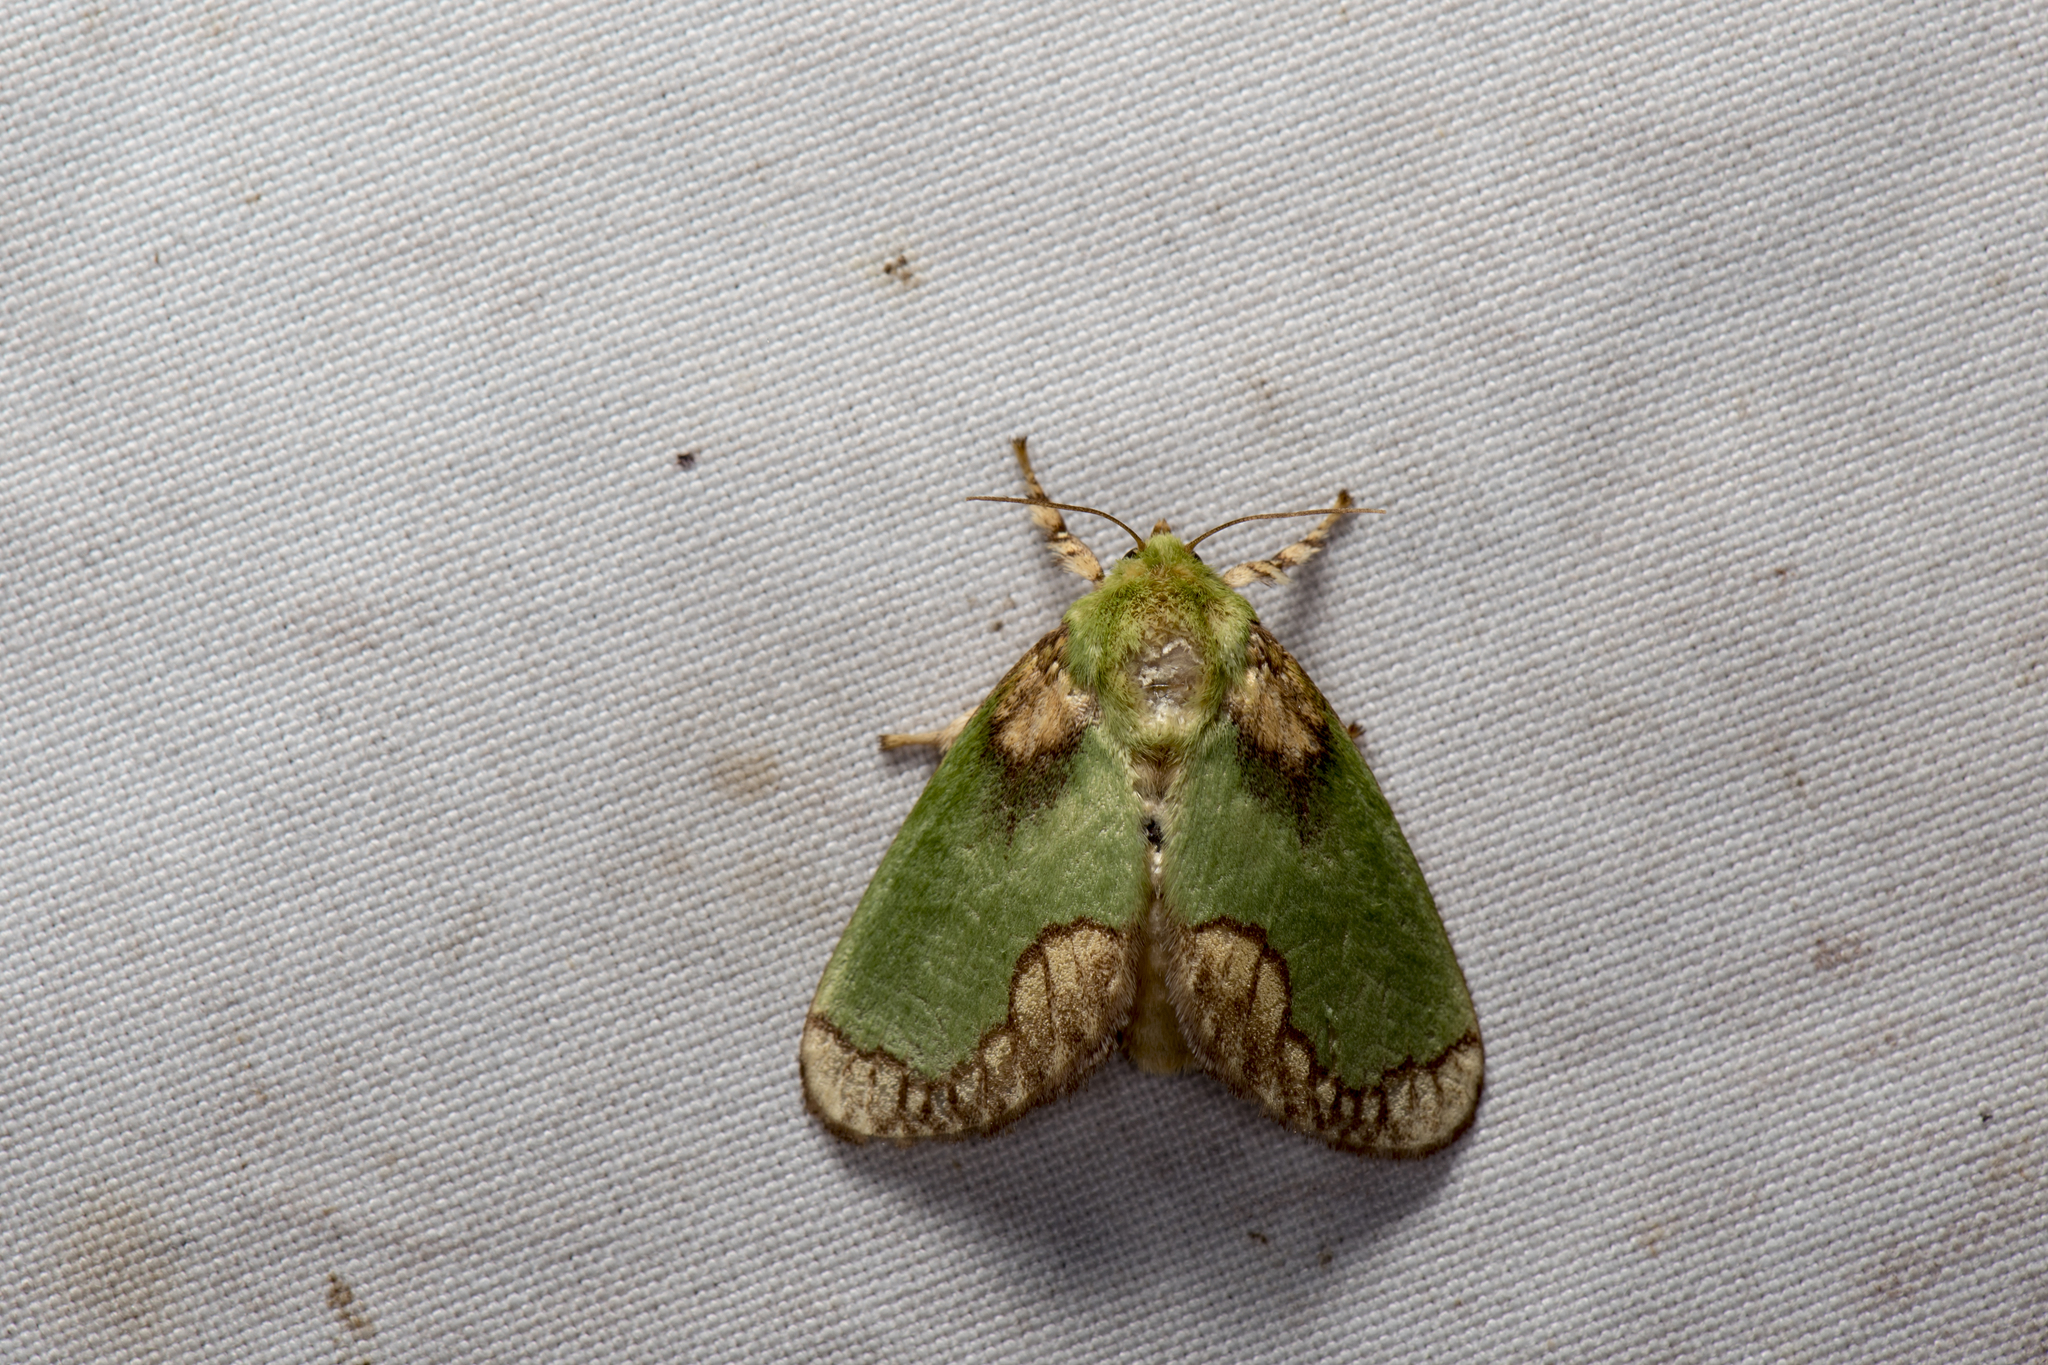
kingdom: Animalia
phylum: Arthropoda
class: Insecta
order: Lepidoptera
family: Limacodidae
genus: Parasa
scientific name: Parasa pastoralis
